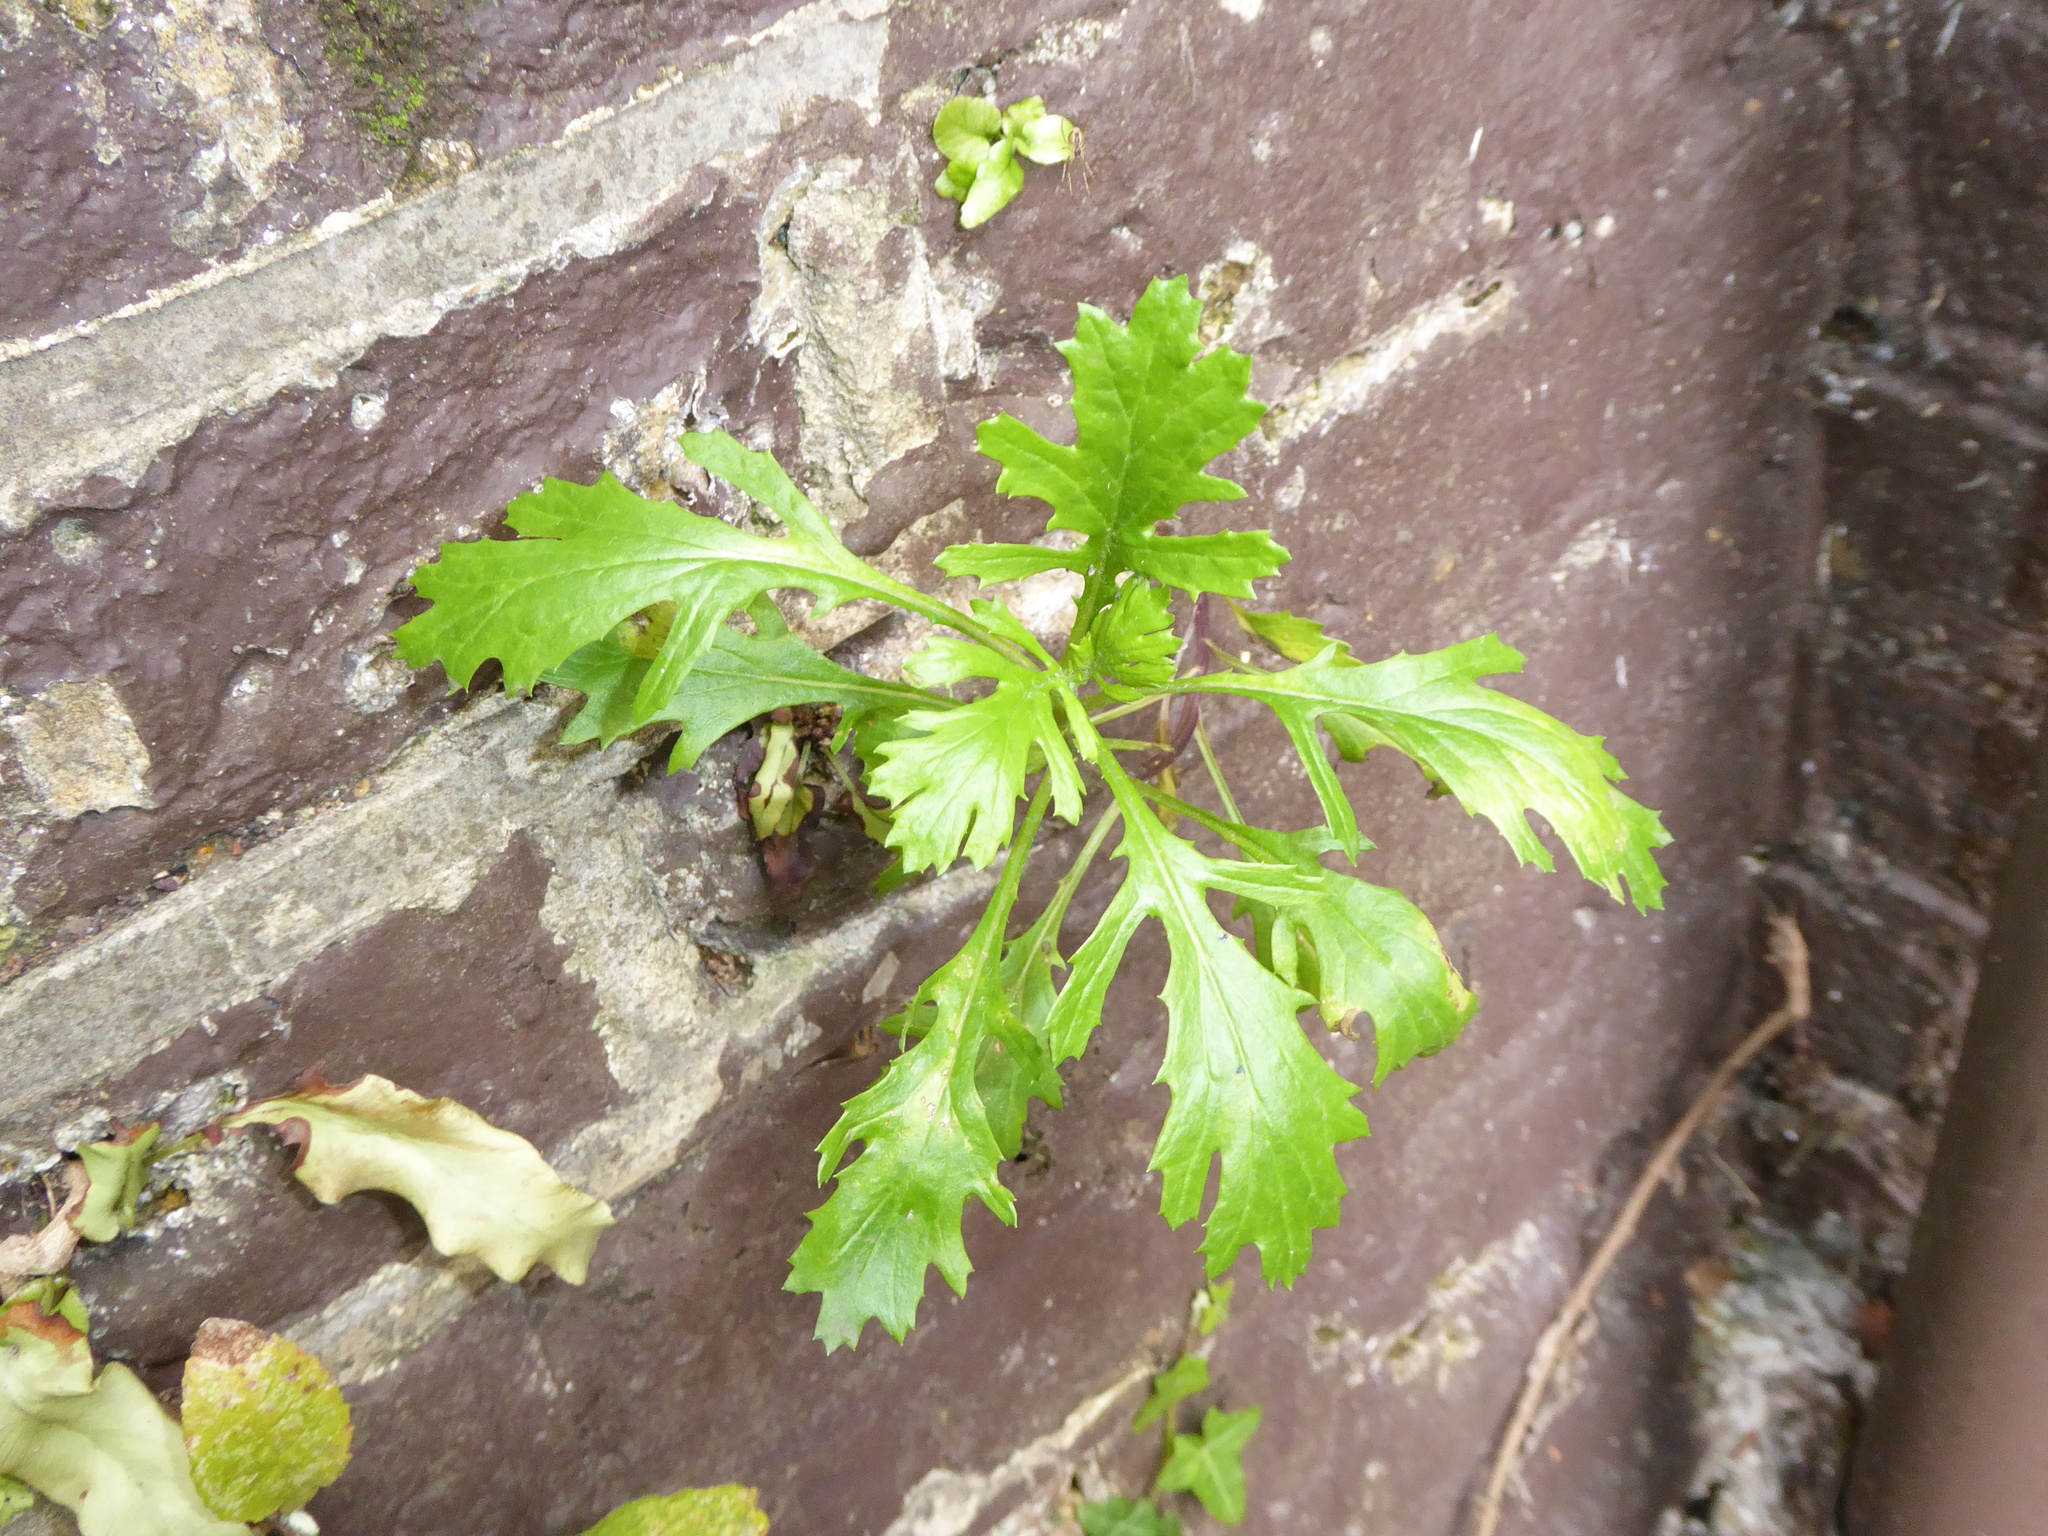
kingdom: Plantae
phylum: Tracheophyta
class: Magnoliopsida
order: Asterales
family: Asteraceae
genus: Senecio
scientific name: Senecio vulgaris
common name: Old-man-in-the-spring
